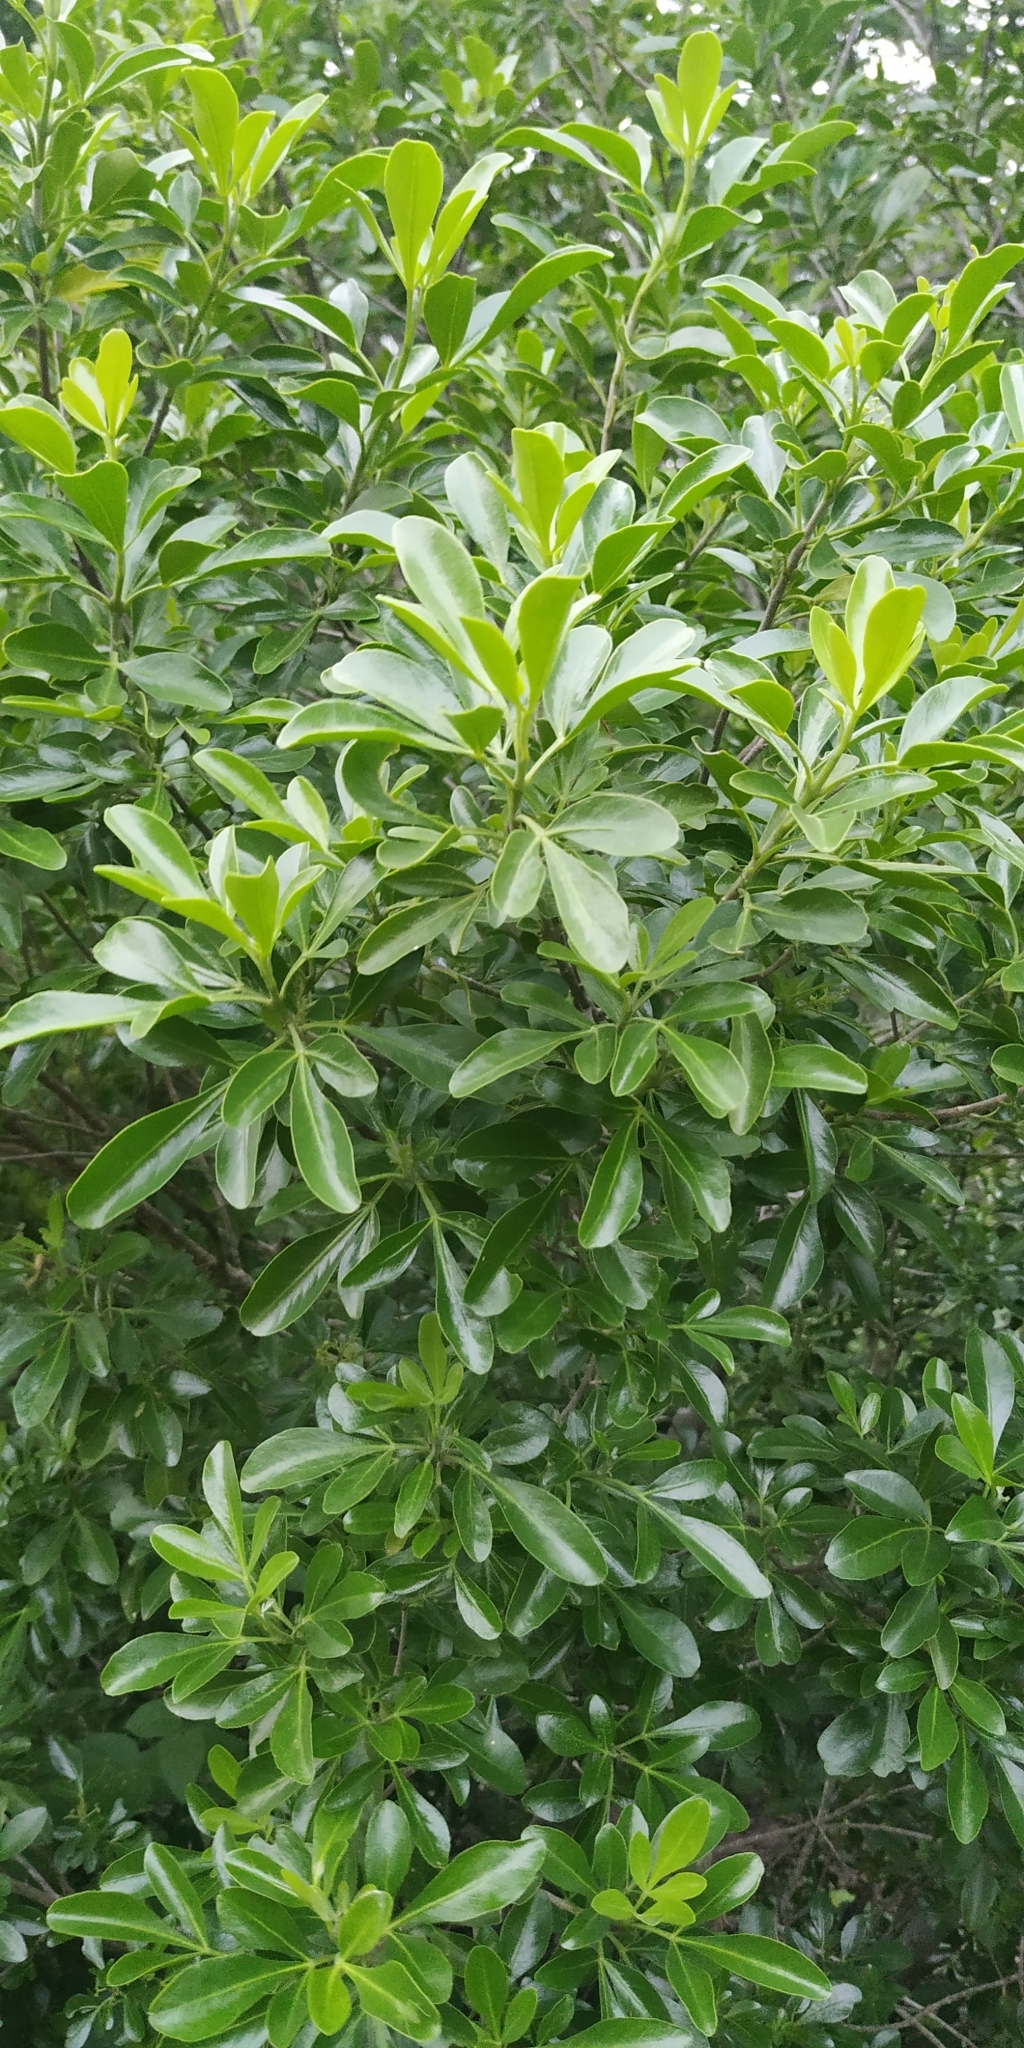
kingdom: Plantae
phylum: Tracheophyta
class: Magnoliopsida
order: Sapindales
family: Rutaceae
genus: Helietta
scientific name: Helietta parvifolia
